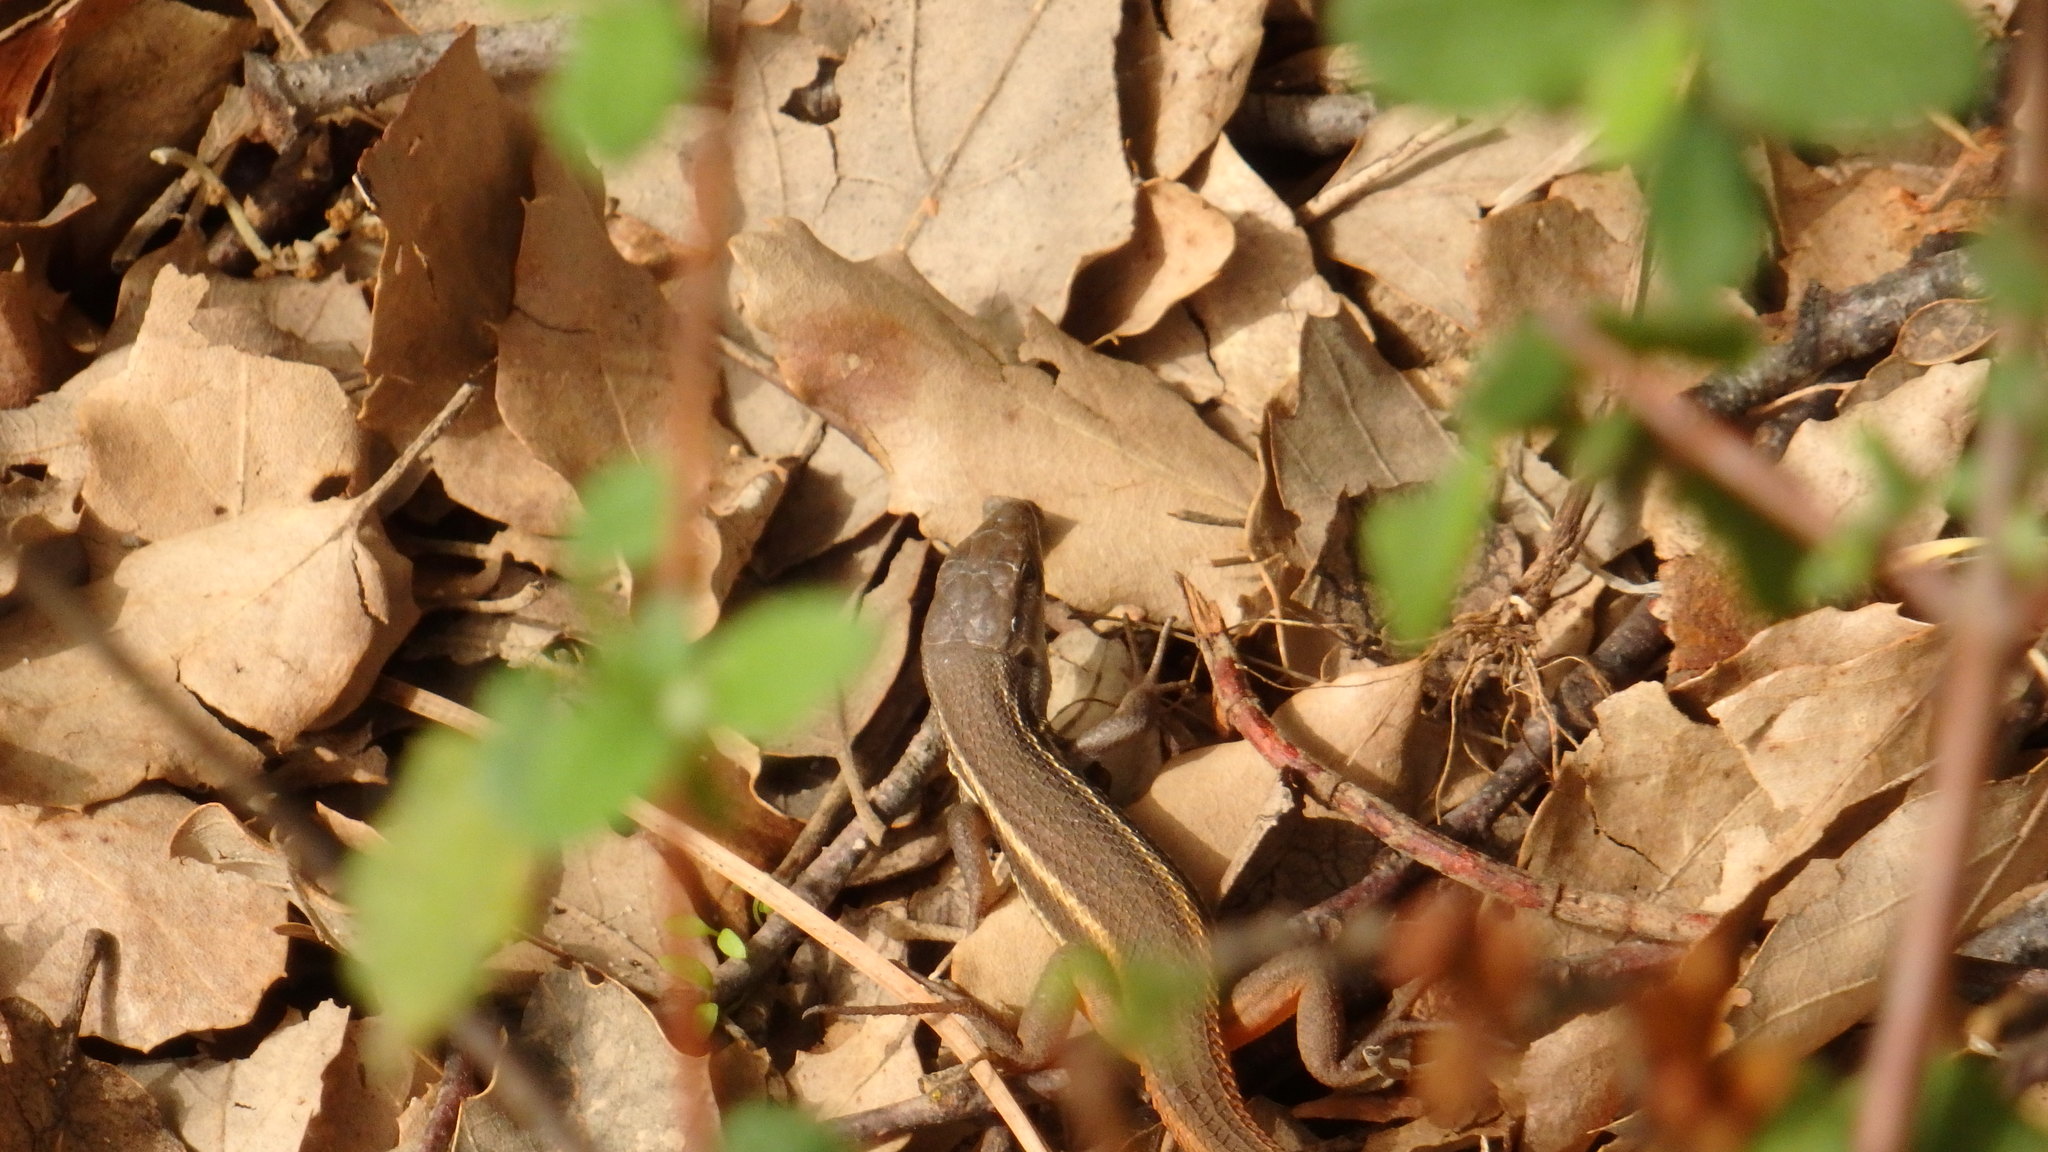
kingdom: Animalia
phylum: Chordata
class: Squamata
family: Lacertidae
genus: Psammodromus
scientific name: Psammodromus algirus
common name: Algerian psammodromus
